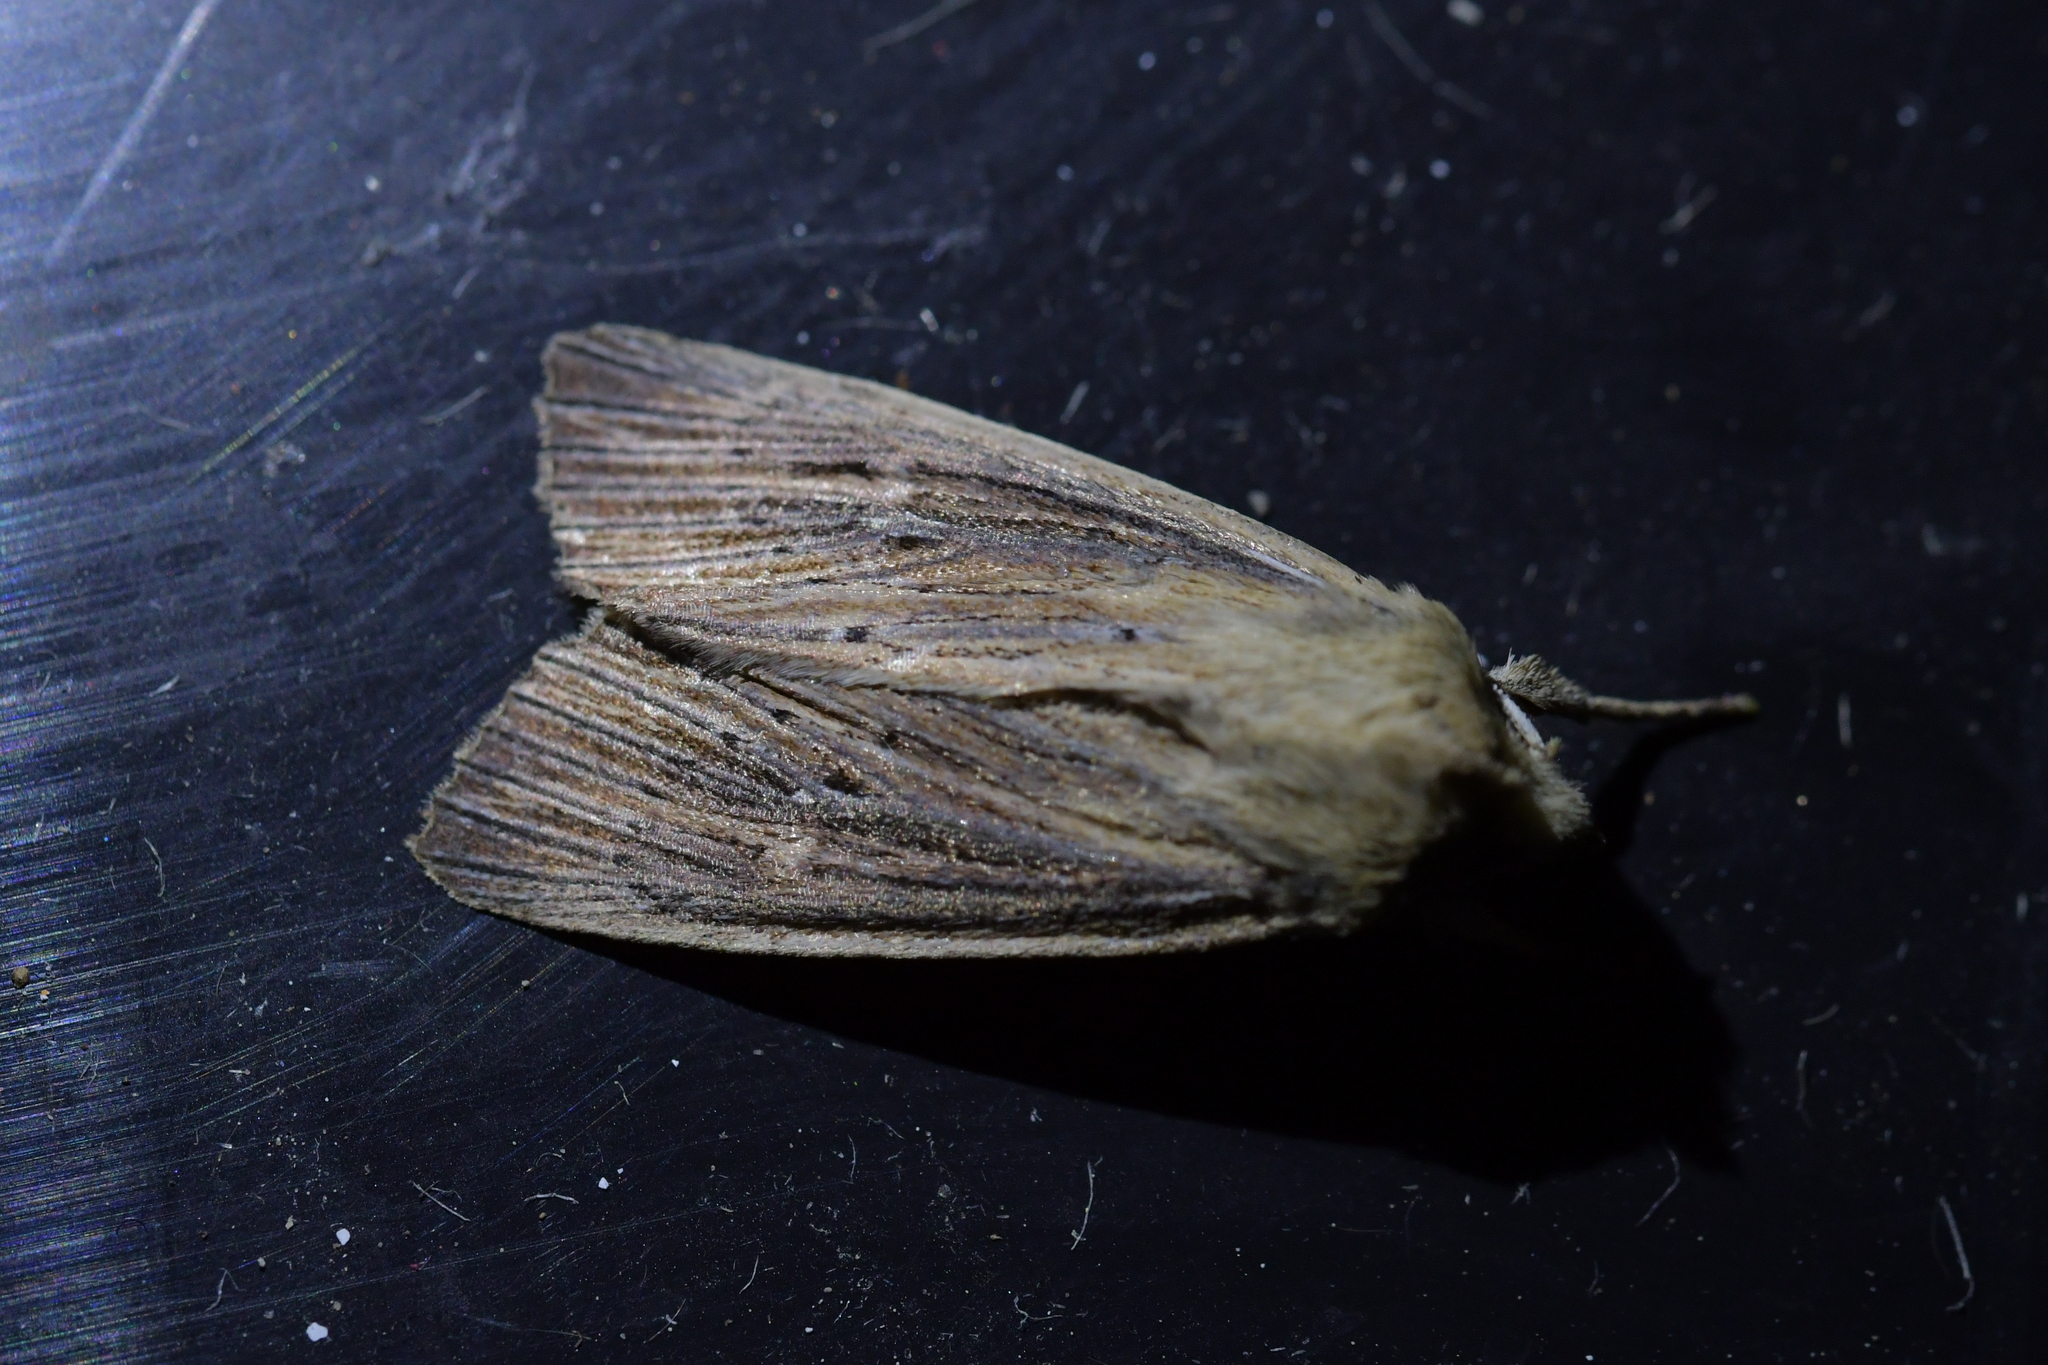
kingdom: Animalia
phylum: Arthropoda
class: Insecta
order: Lepidoptera
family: Noctuidae
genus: Ichneutica
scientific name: Ichneutica arotis
